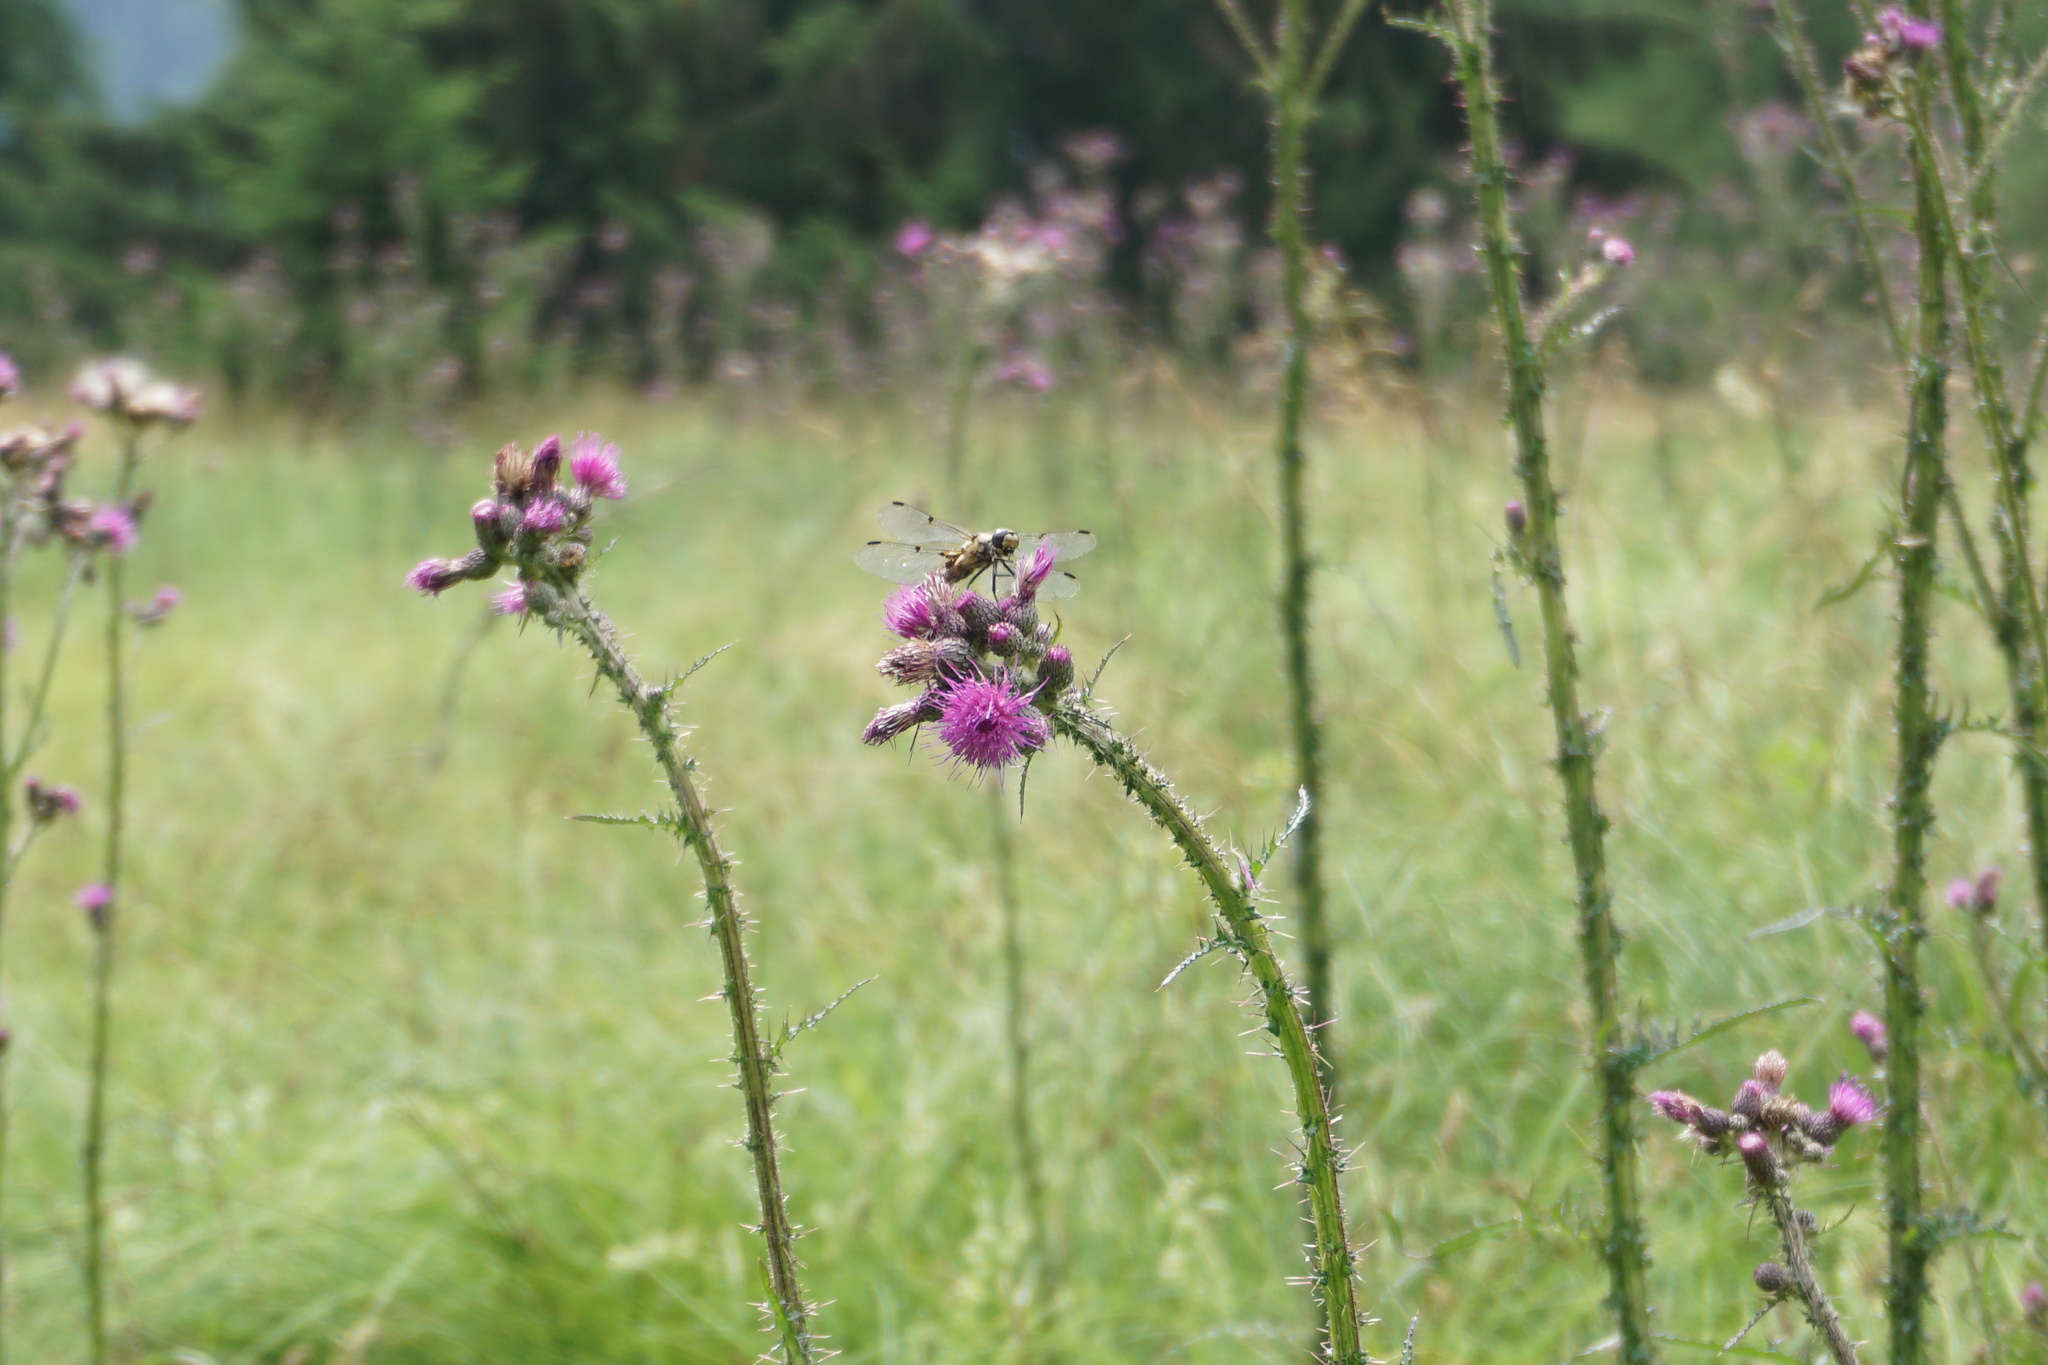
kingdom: Animalia
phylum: Arthropoda
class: Insecta
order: Odonata
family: Libellulidae
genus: Libellula
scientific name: Libellula quadrimaculata
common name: Four-spotted chaser
